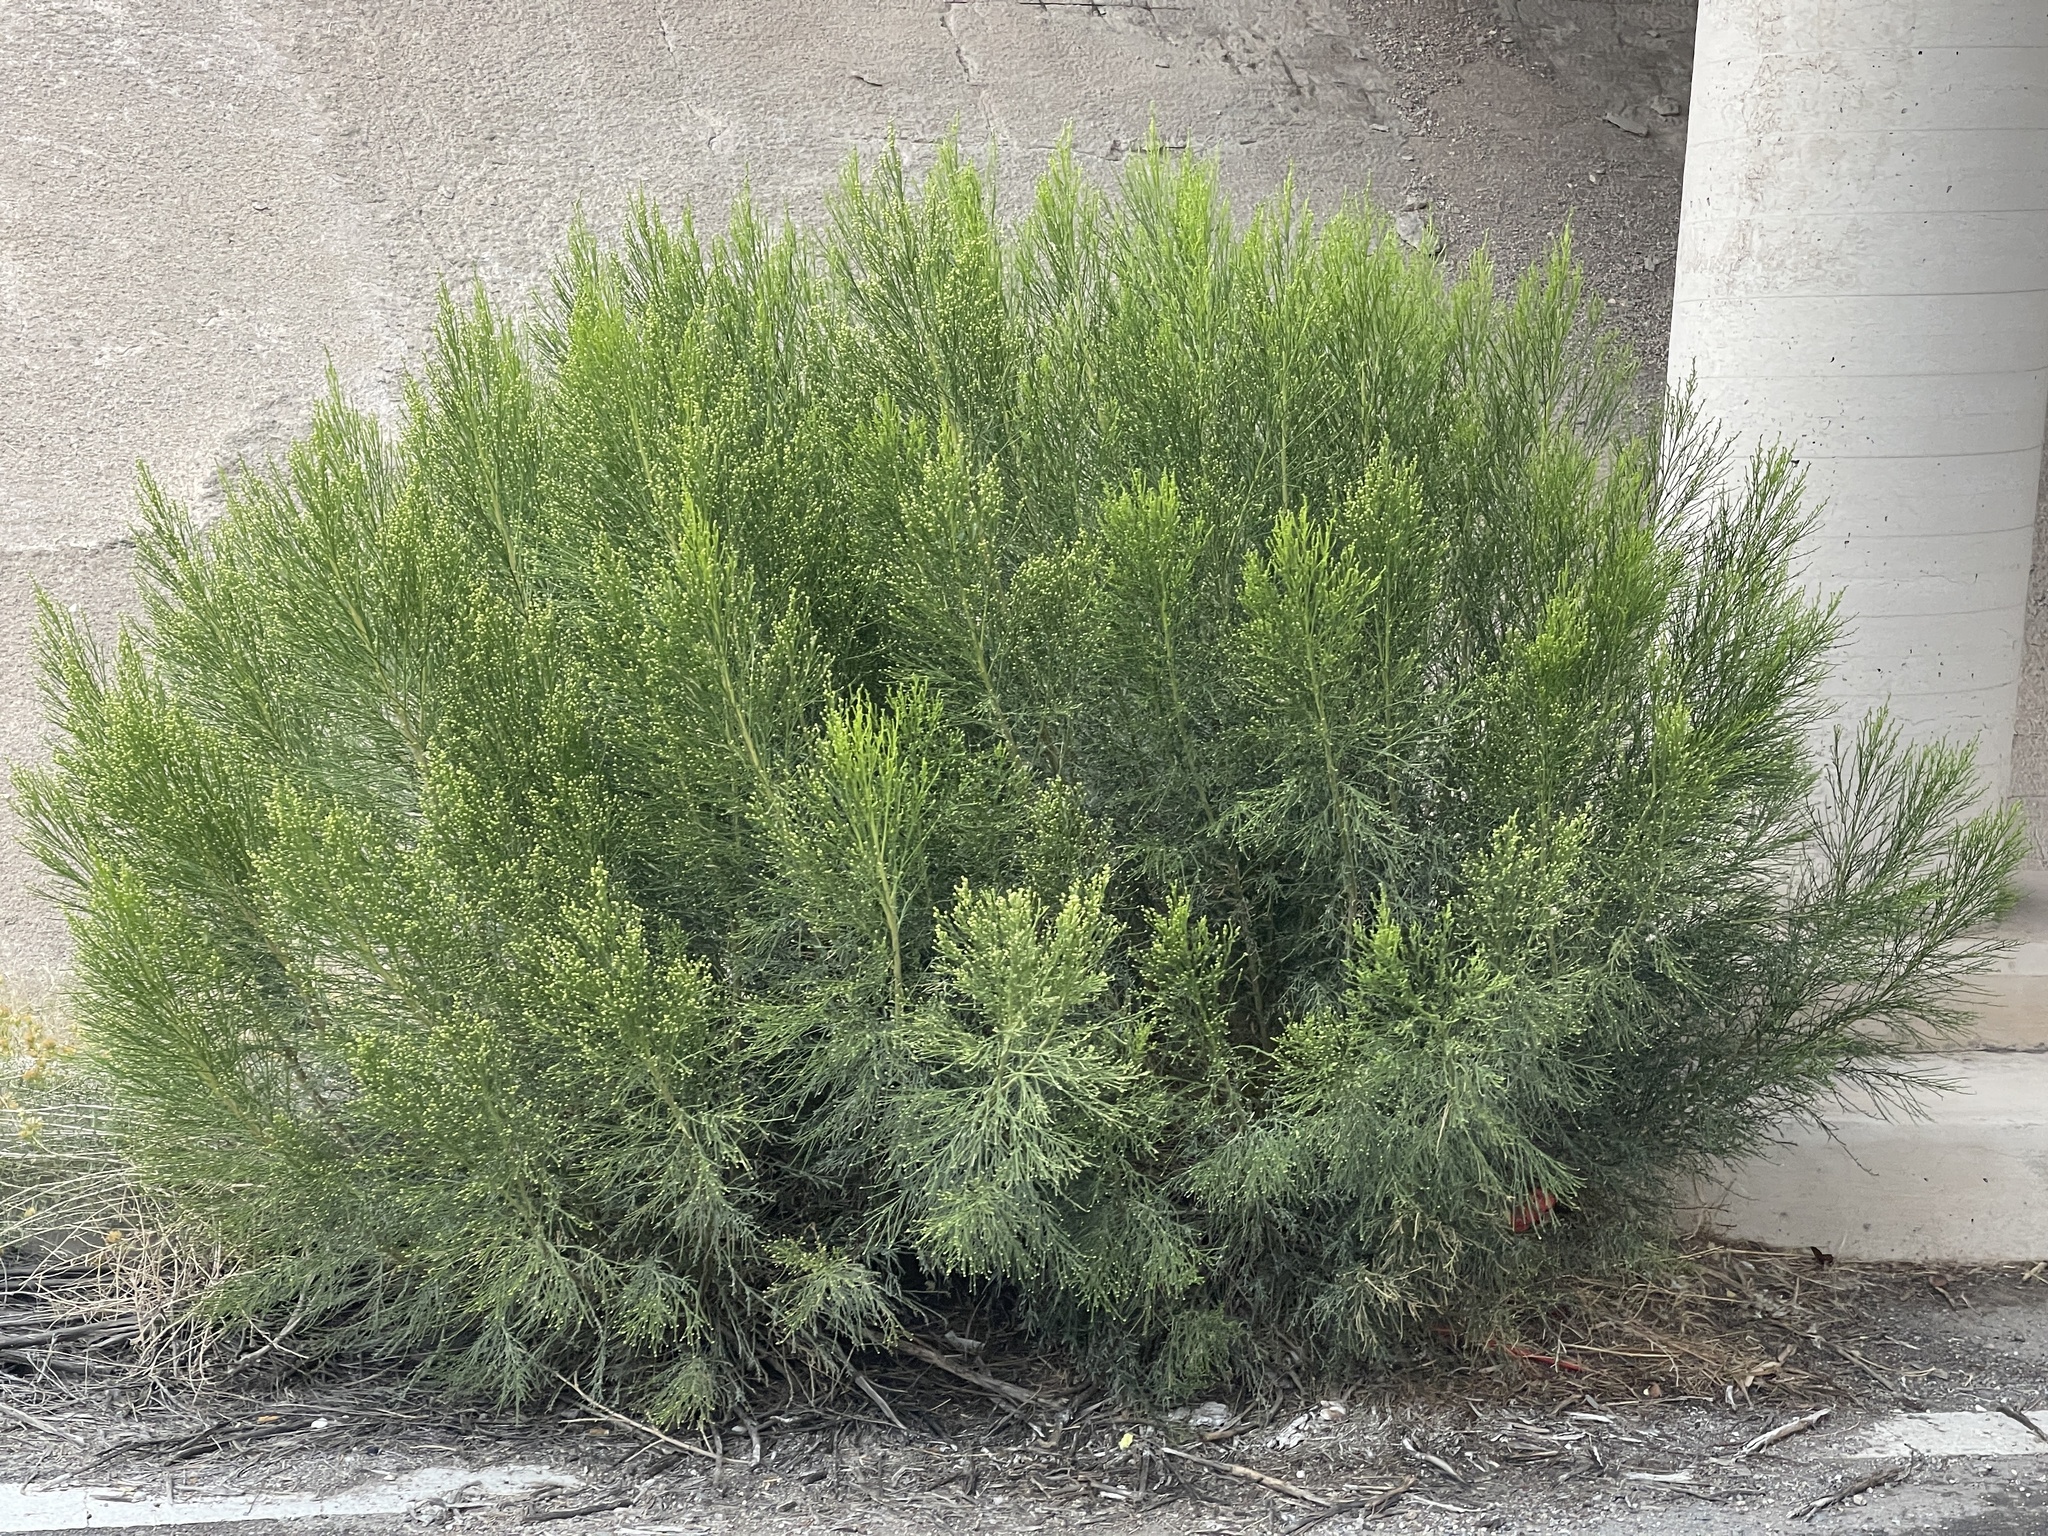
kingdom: Plantae
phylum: Tracheophyta
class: Magnoliopsida
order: Asterales
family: Asteraceae
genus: Baccharis
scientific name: Baccharis sarothroides
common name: Desert-broom
